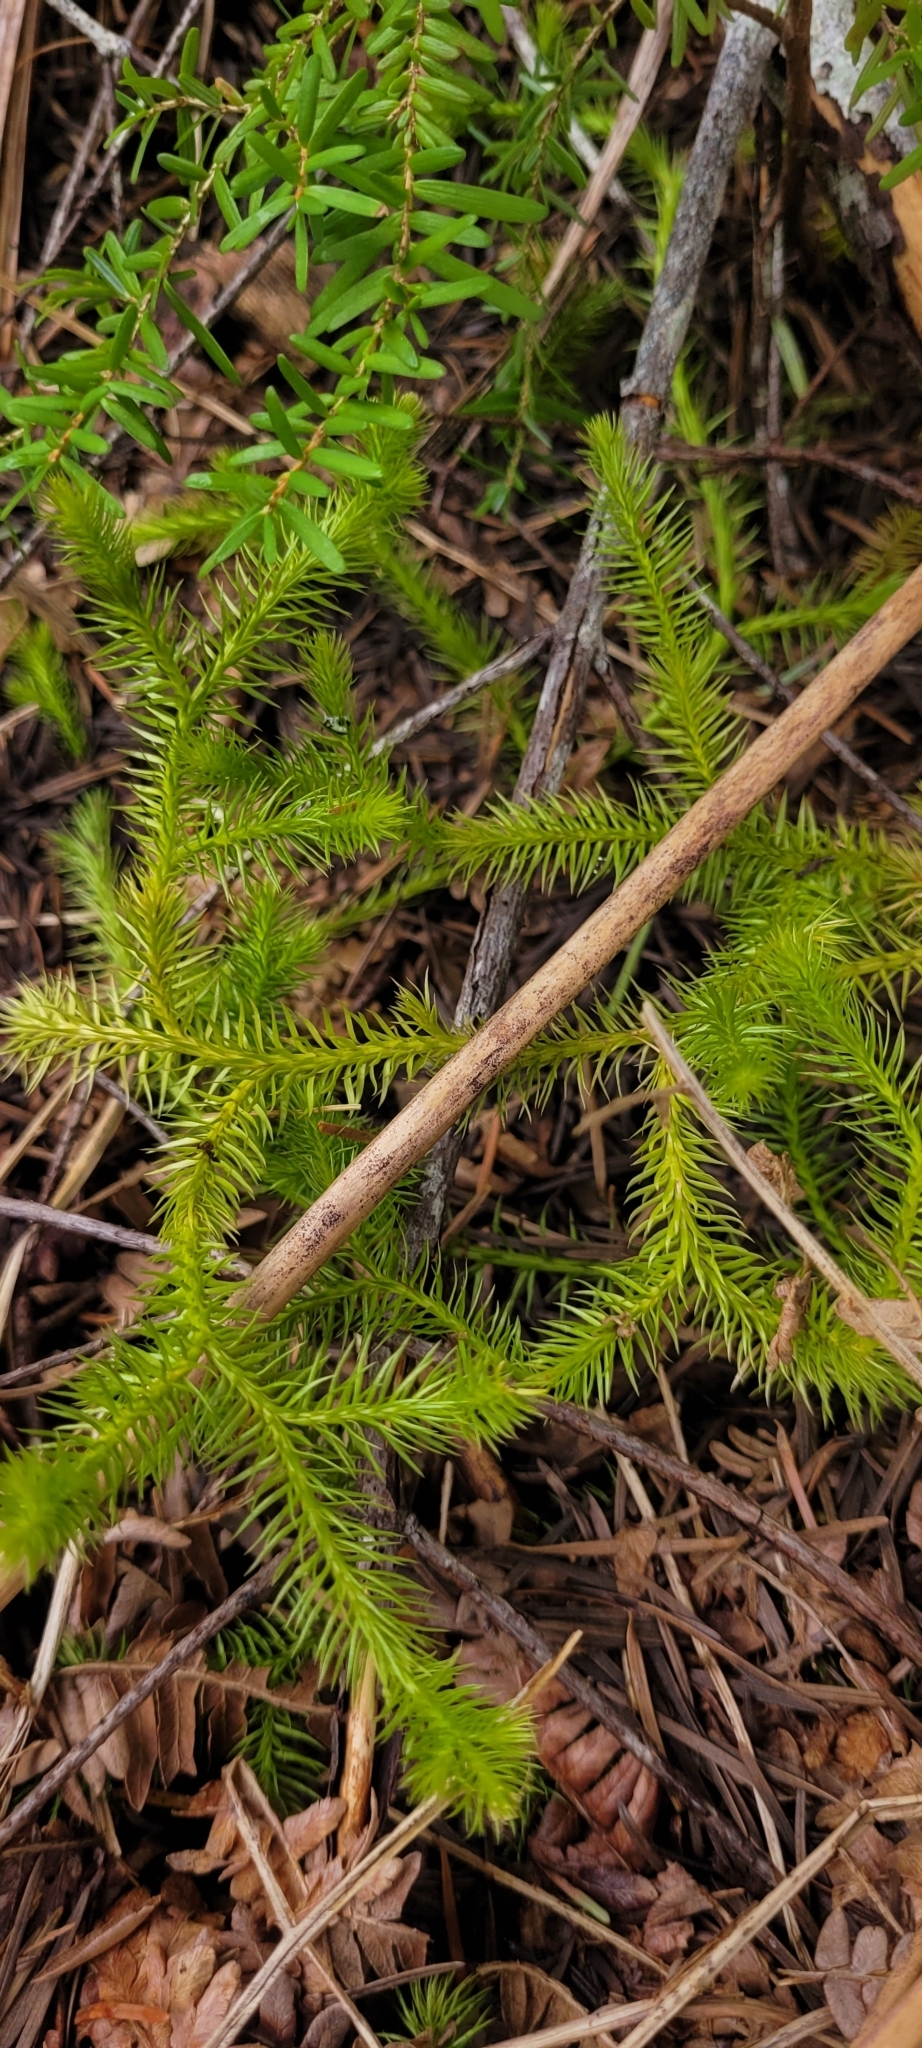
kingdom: Plantae
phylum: Tracheophyta
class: Lycopodiopsida
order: Lycopodiales
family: Lycopodiaceae
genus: Lycopodium
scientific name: Lycopodium clavatum
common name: Stag's-horn clubmoss
